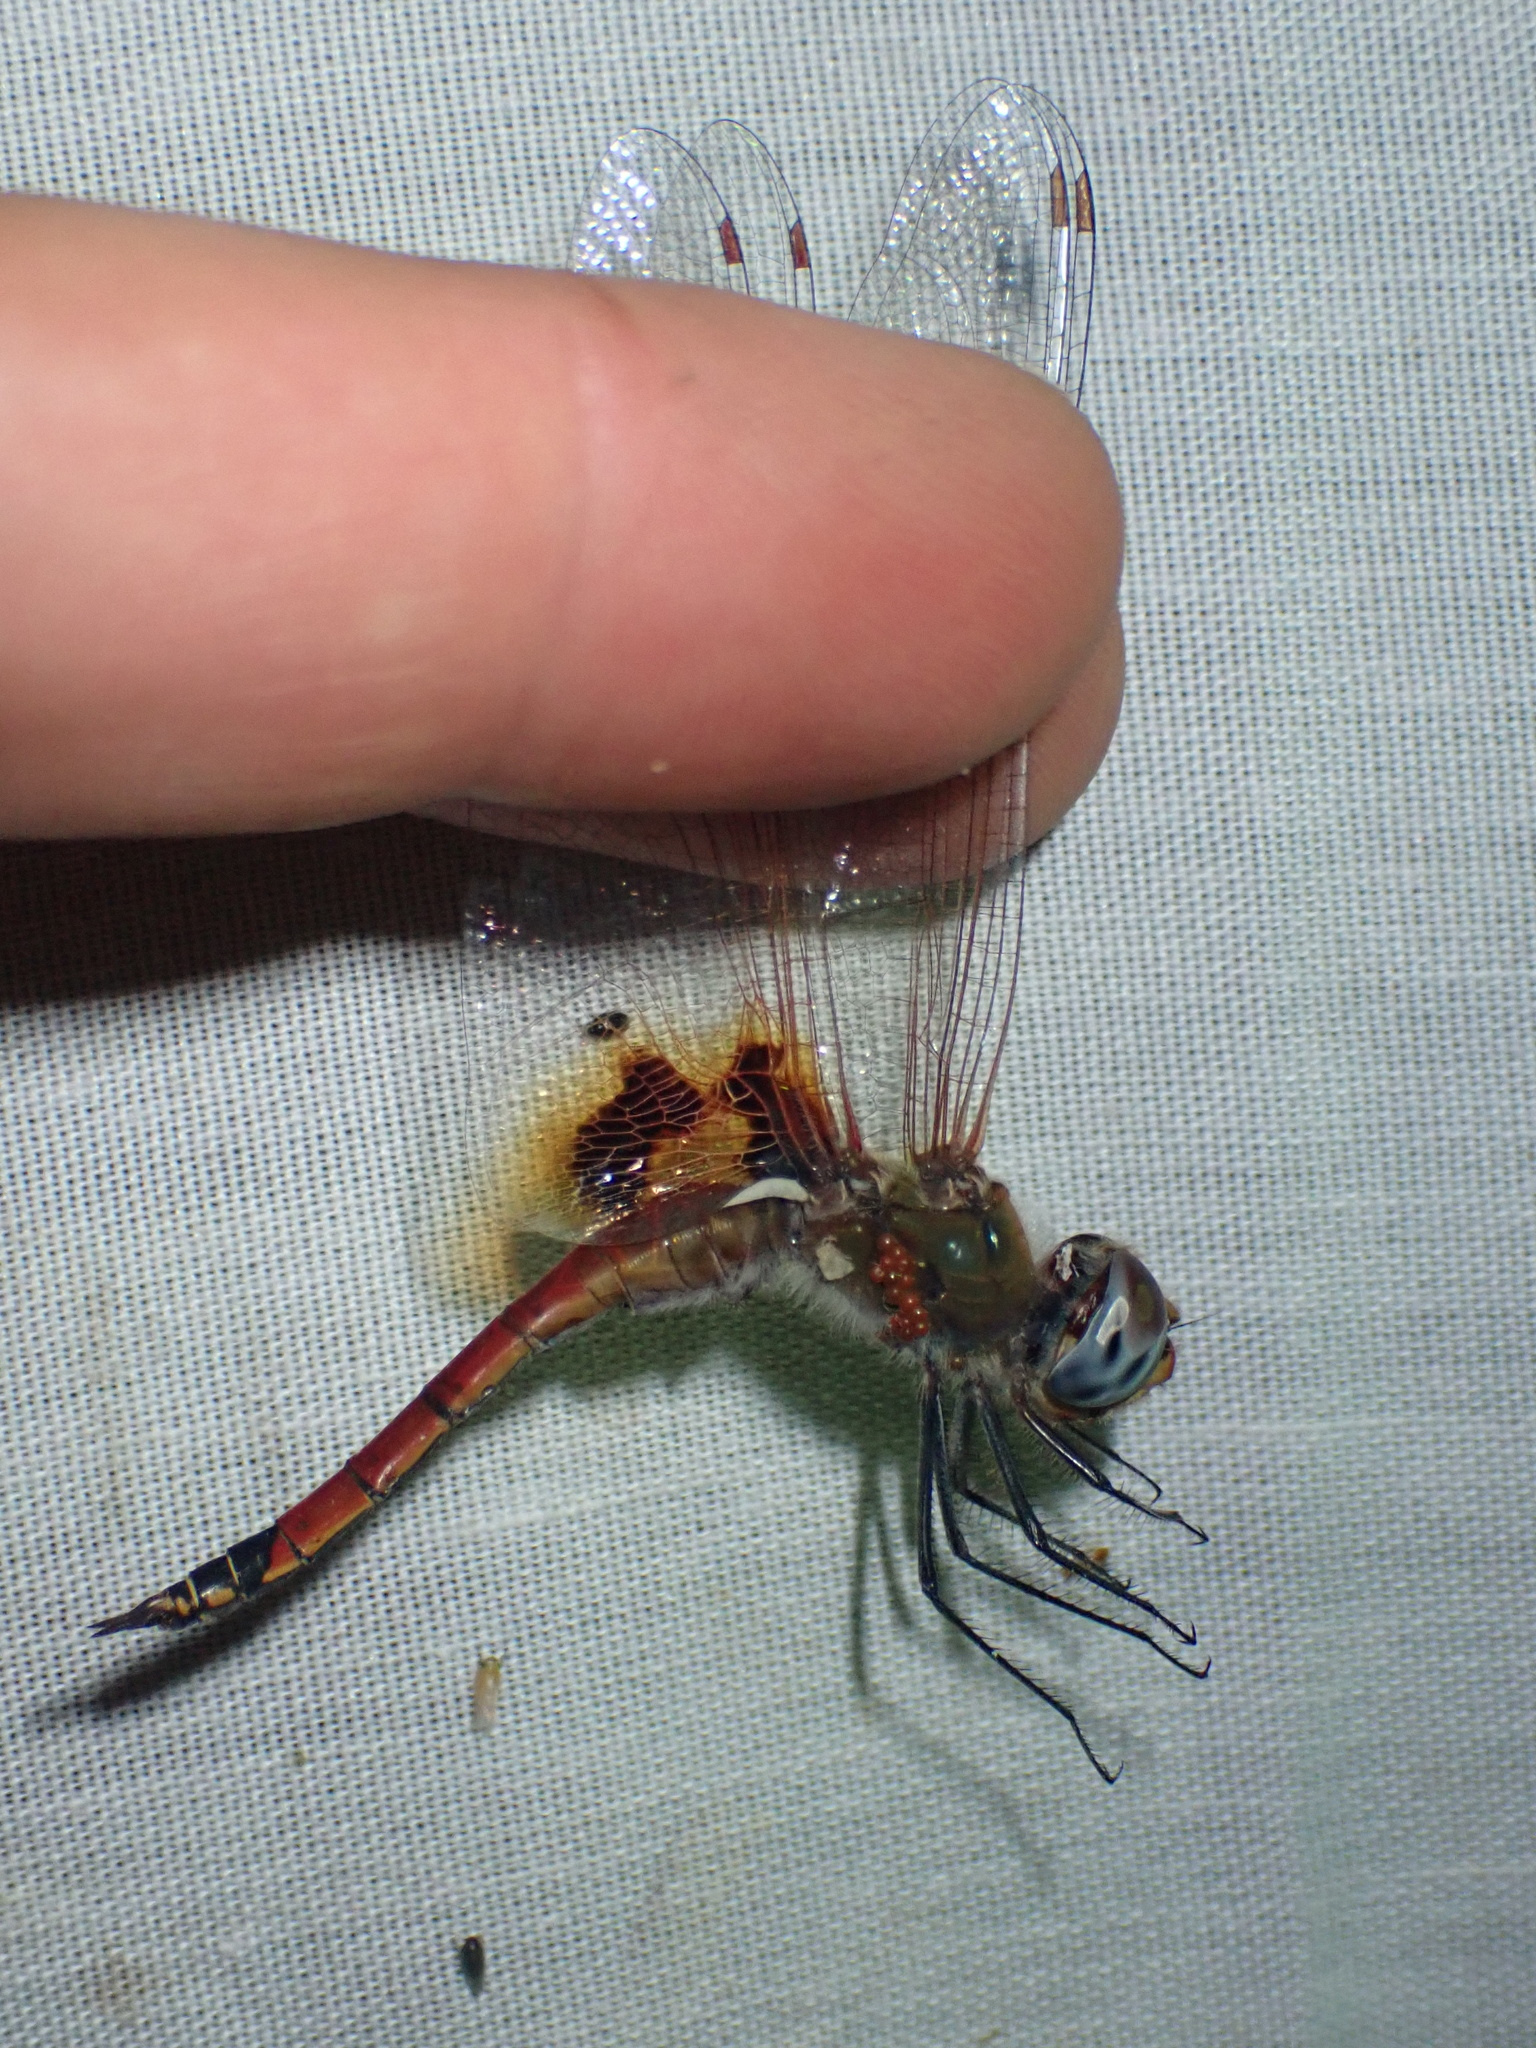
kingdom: Animalia
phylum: Arthropoda
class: Insecta
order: Odonata
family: Libellulidae
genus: Tramea
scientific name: Tramea basilaris
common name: Keyhole glider
